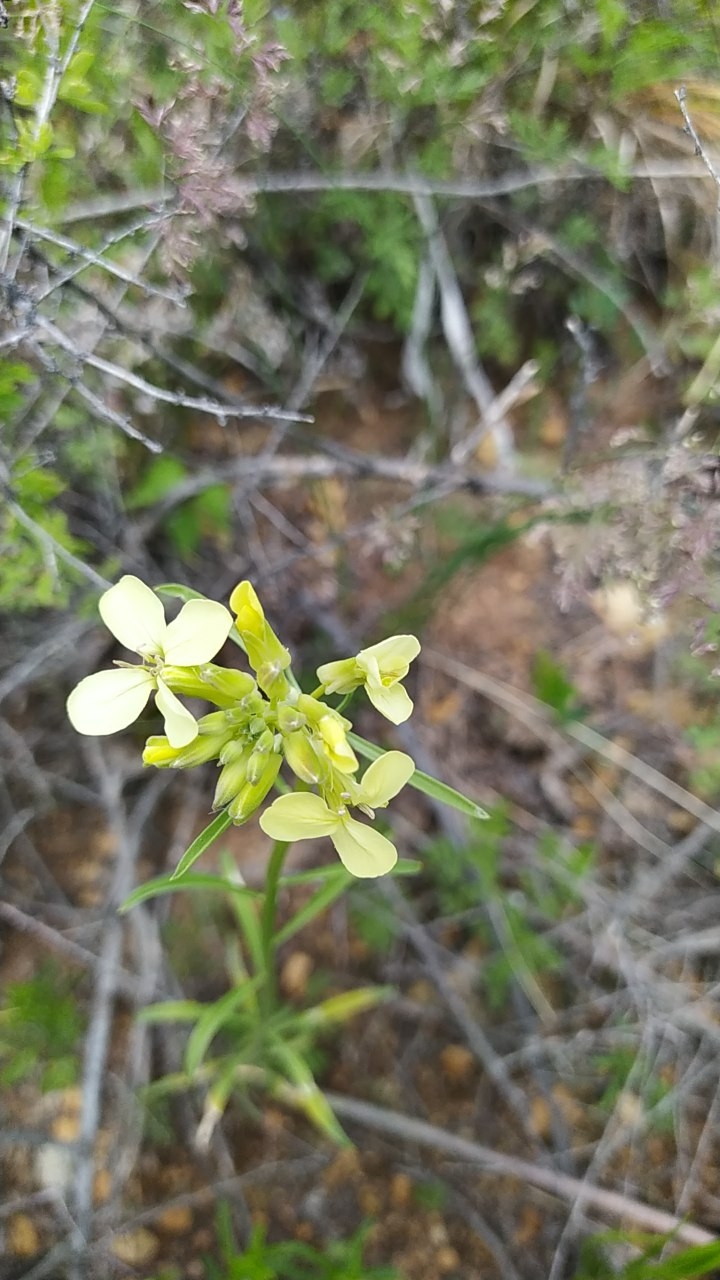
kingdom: Plantae
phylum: Tracheophyta
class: Magnoliopsida
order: Brassicales
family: Brassicaceae
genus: Erysimum
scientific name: Erysimum flavum
